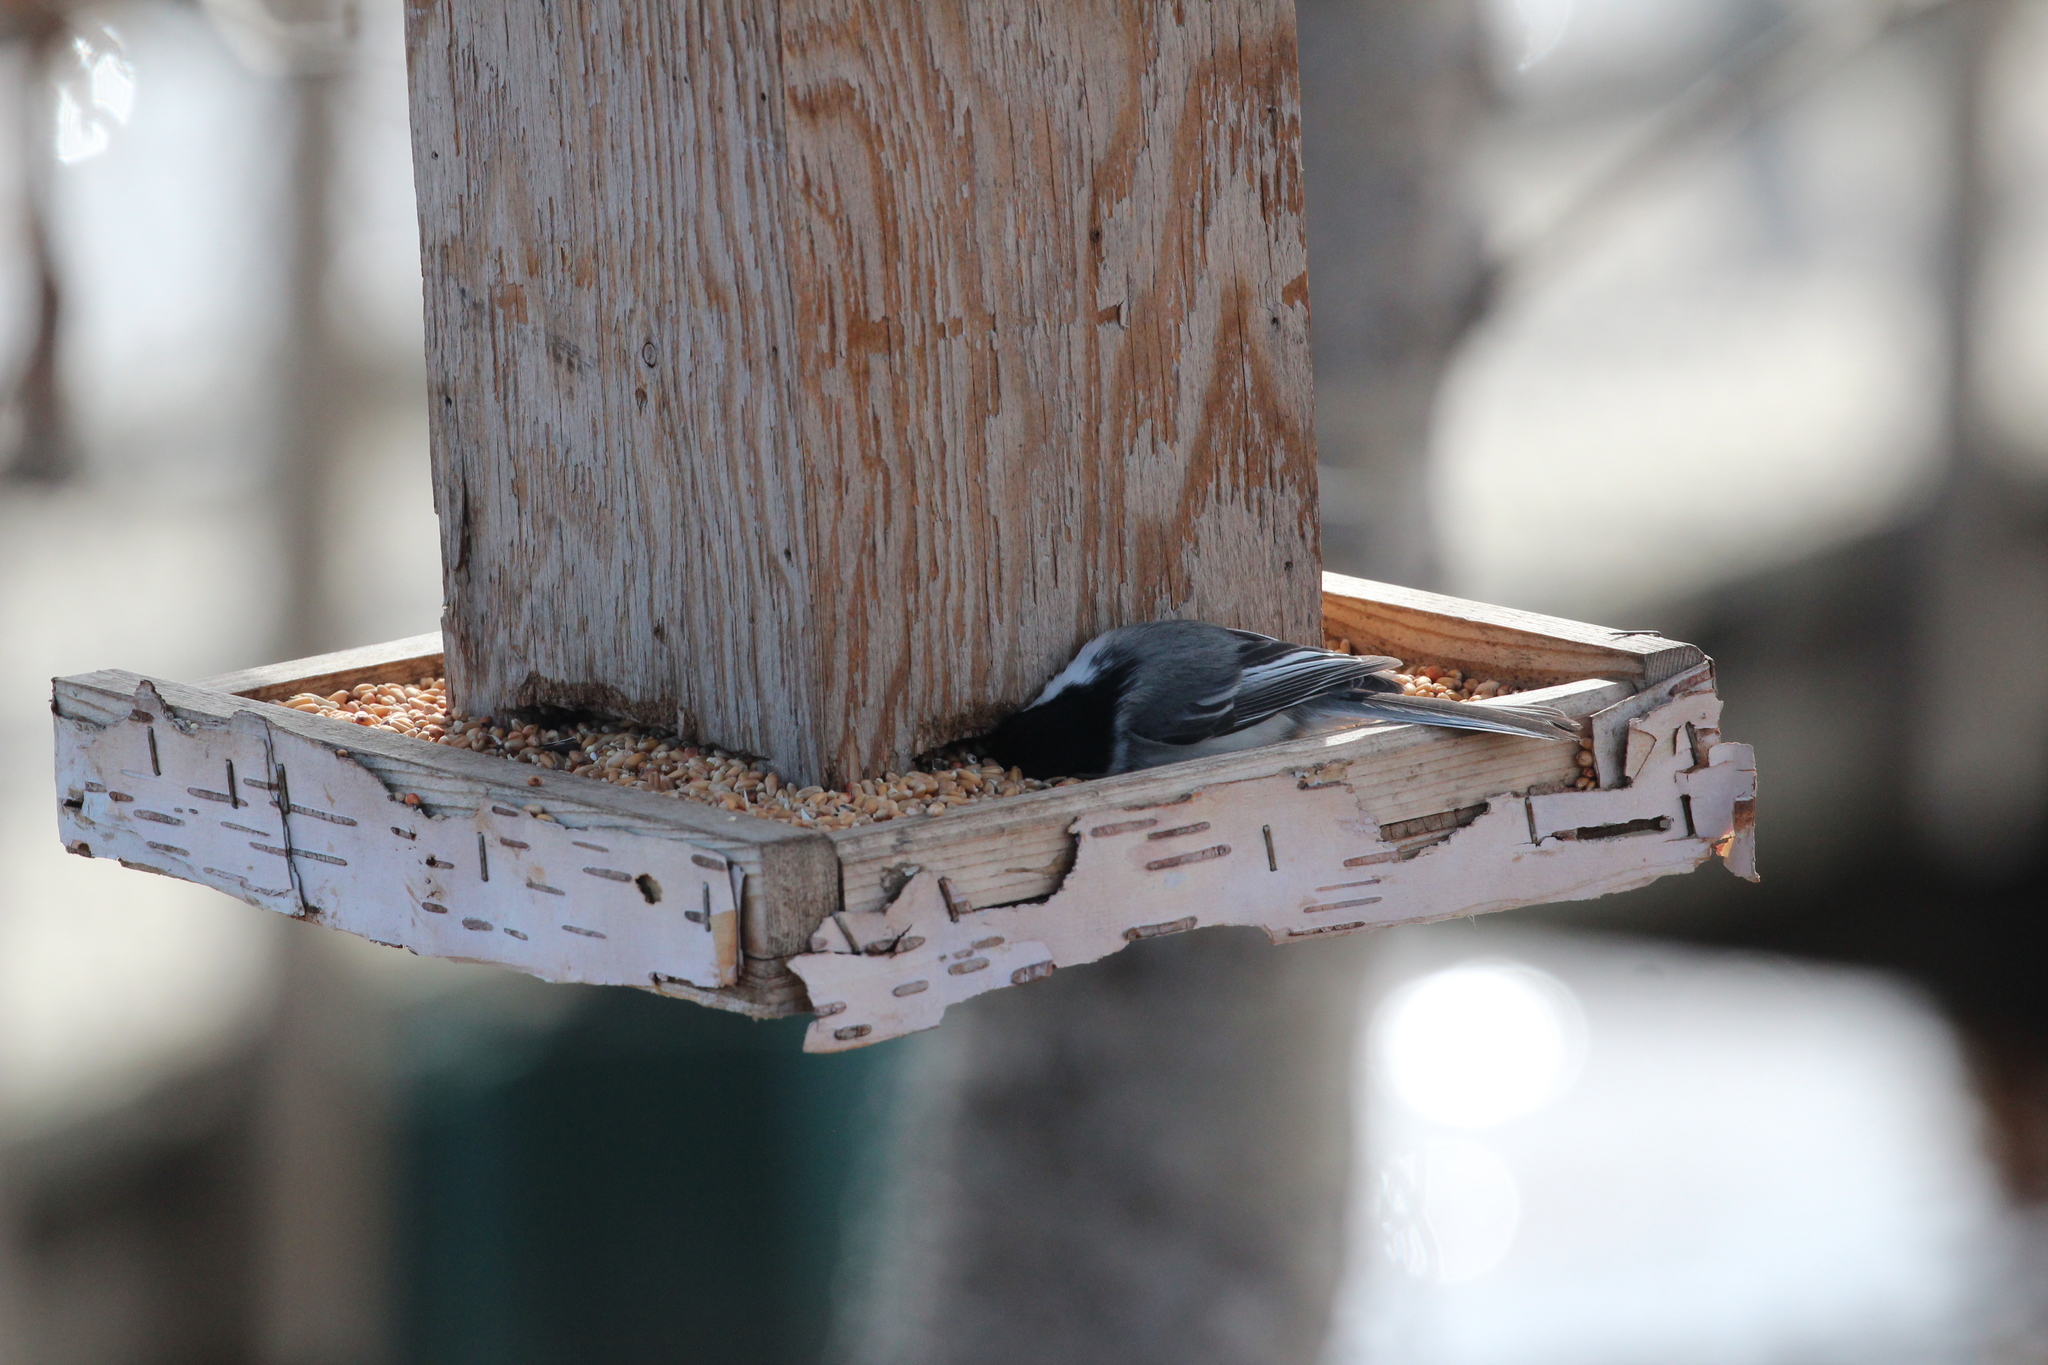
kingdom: Animalia
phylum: Chordata
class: Aves
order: Passeriformes
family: Paridae
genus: Poecile
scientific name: Poecile atricapillus
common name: Black-capped chickadee
